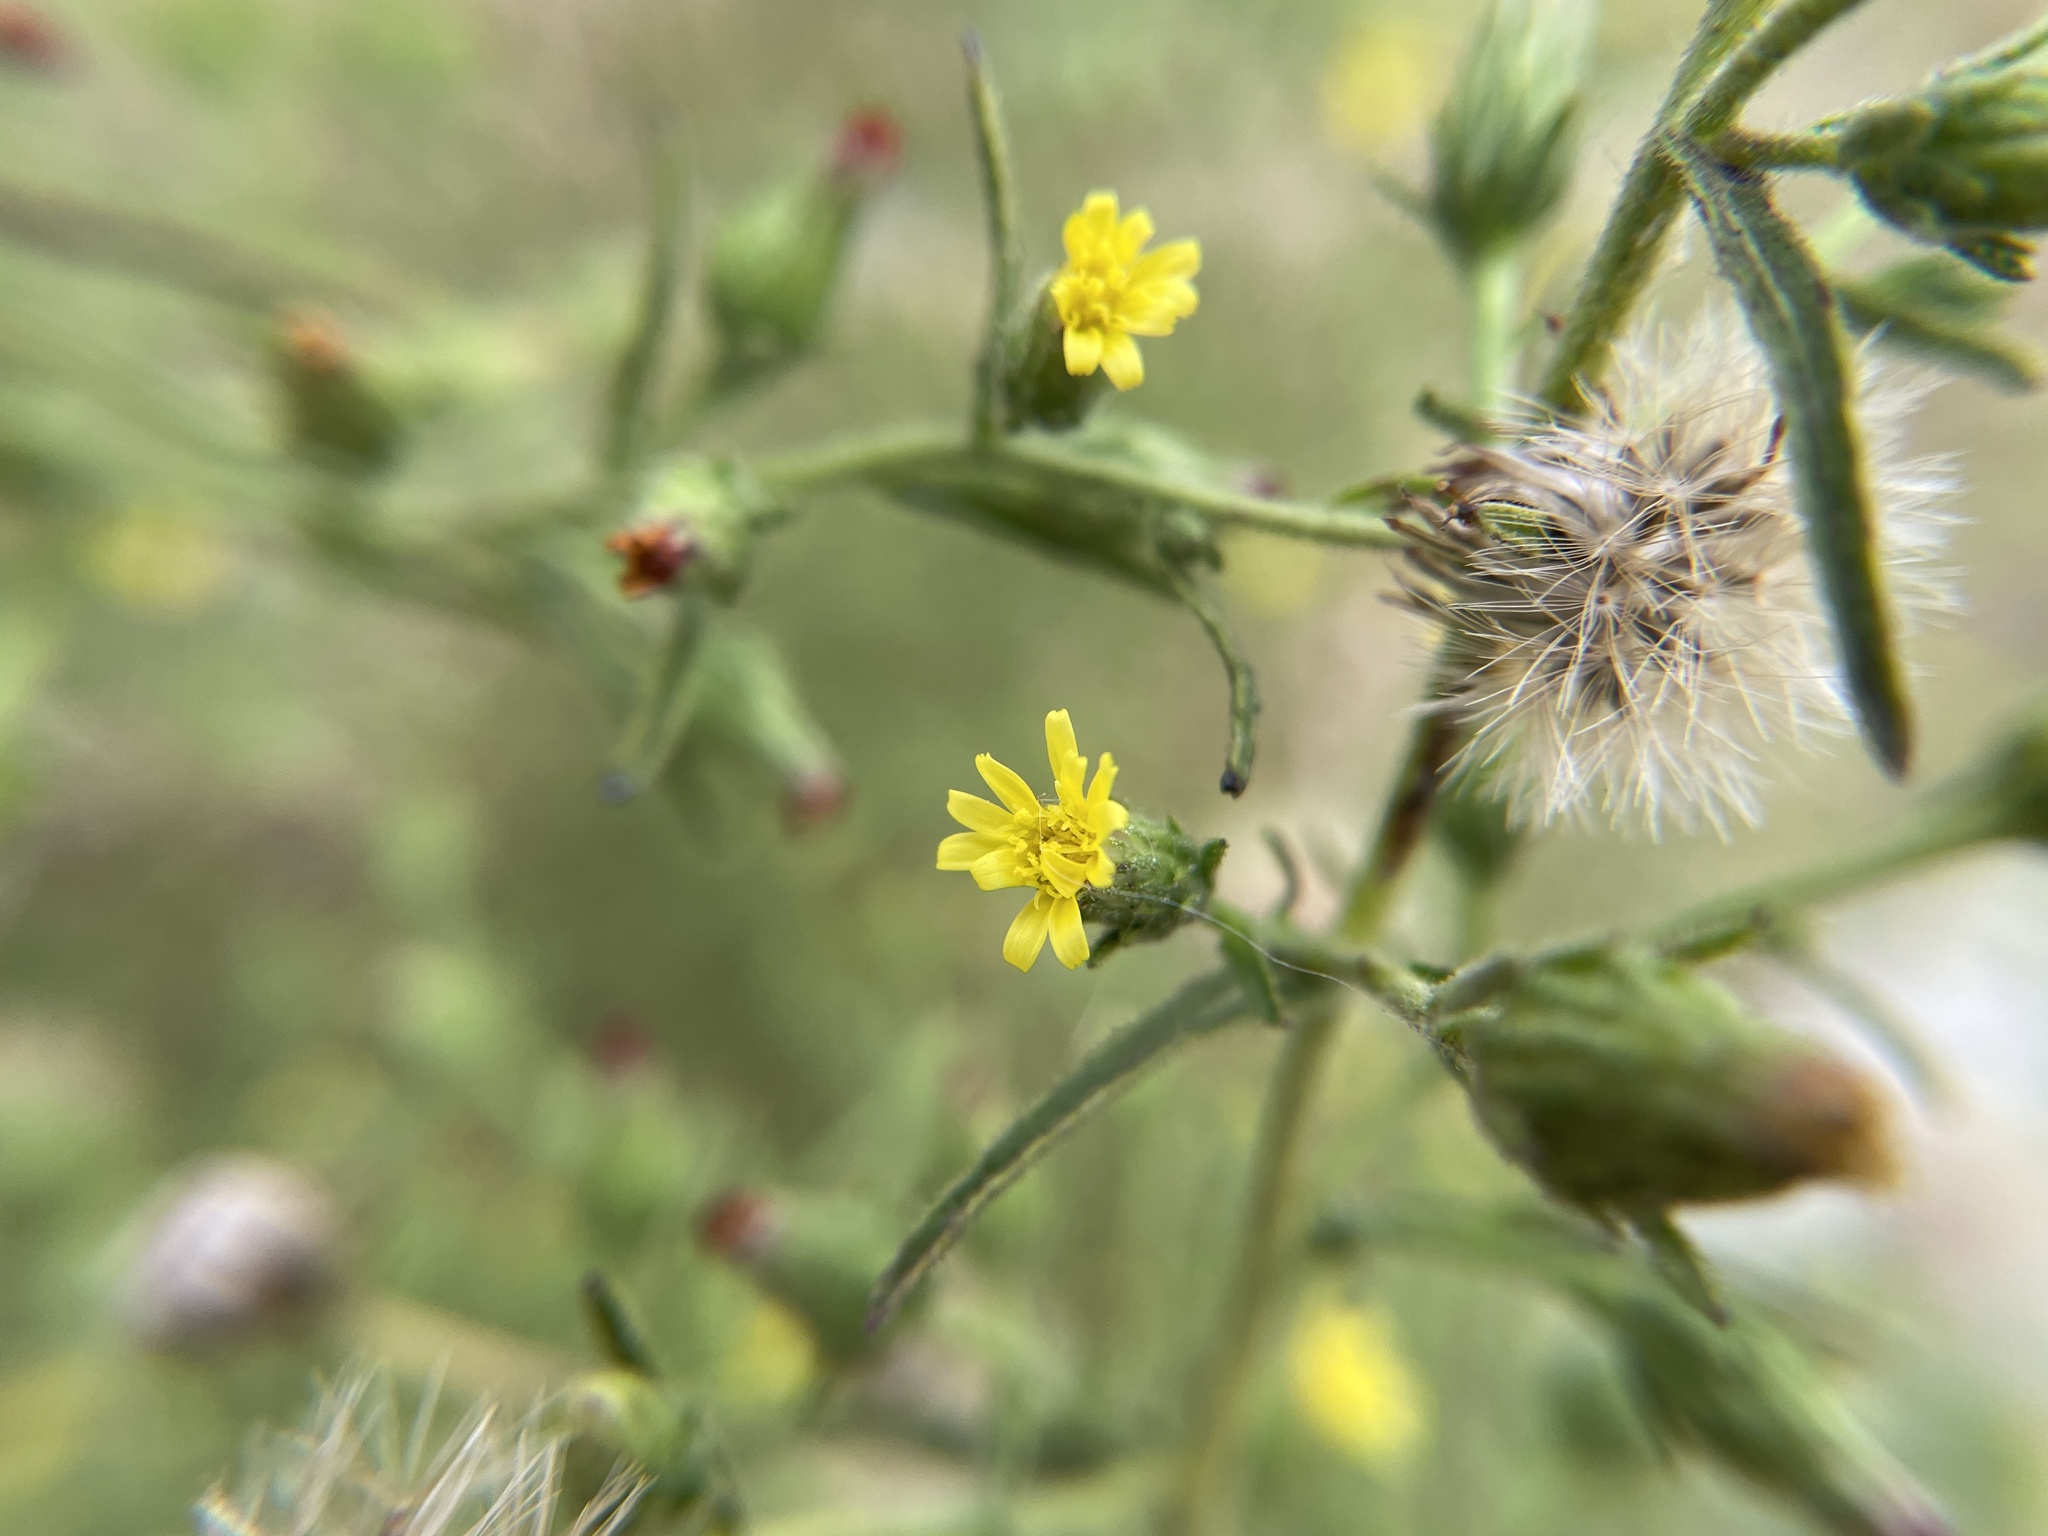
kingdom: Plantae
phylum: Tracheophyta
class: Magnoliopsida
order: Asterales
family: Asteraceae
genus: Dittrichia
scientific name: Dittrichia graveolens
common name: Stinking fleabane
